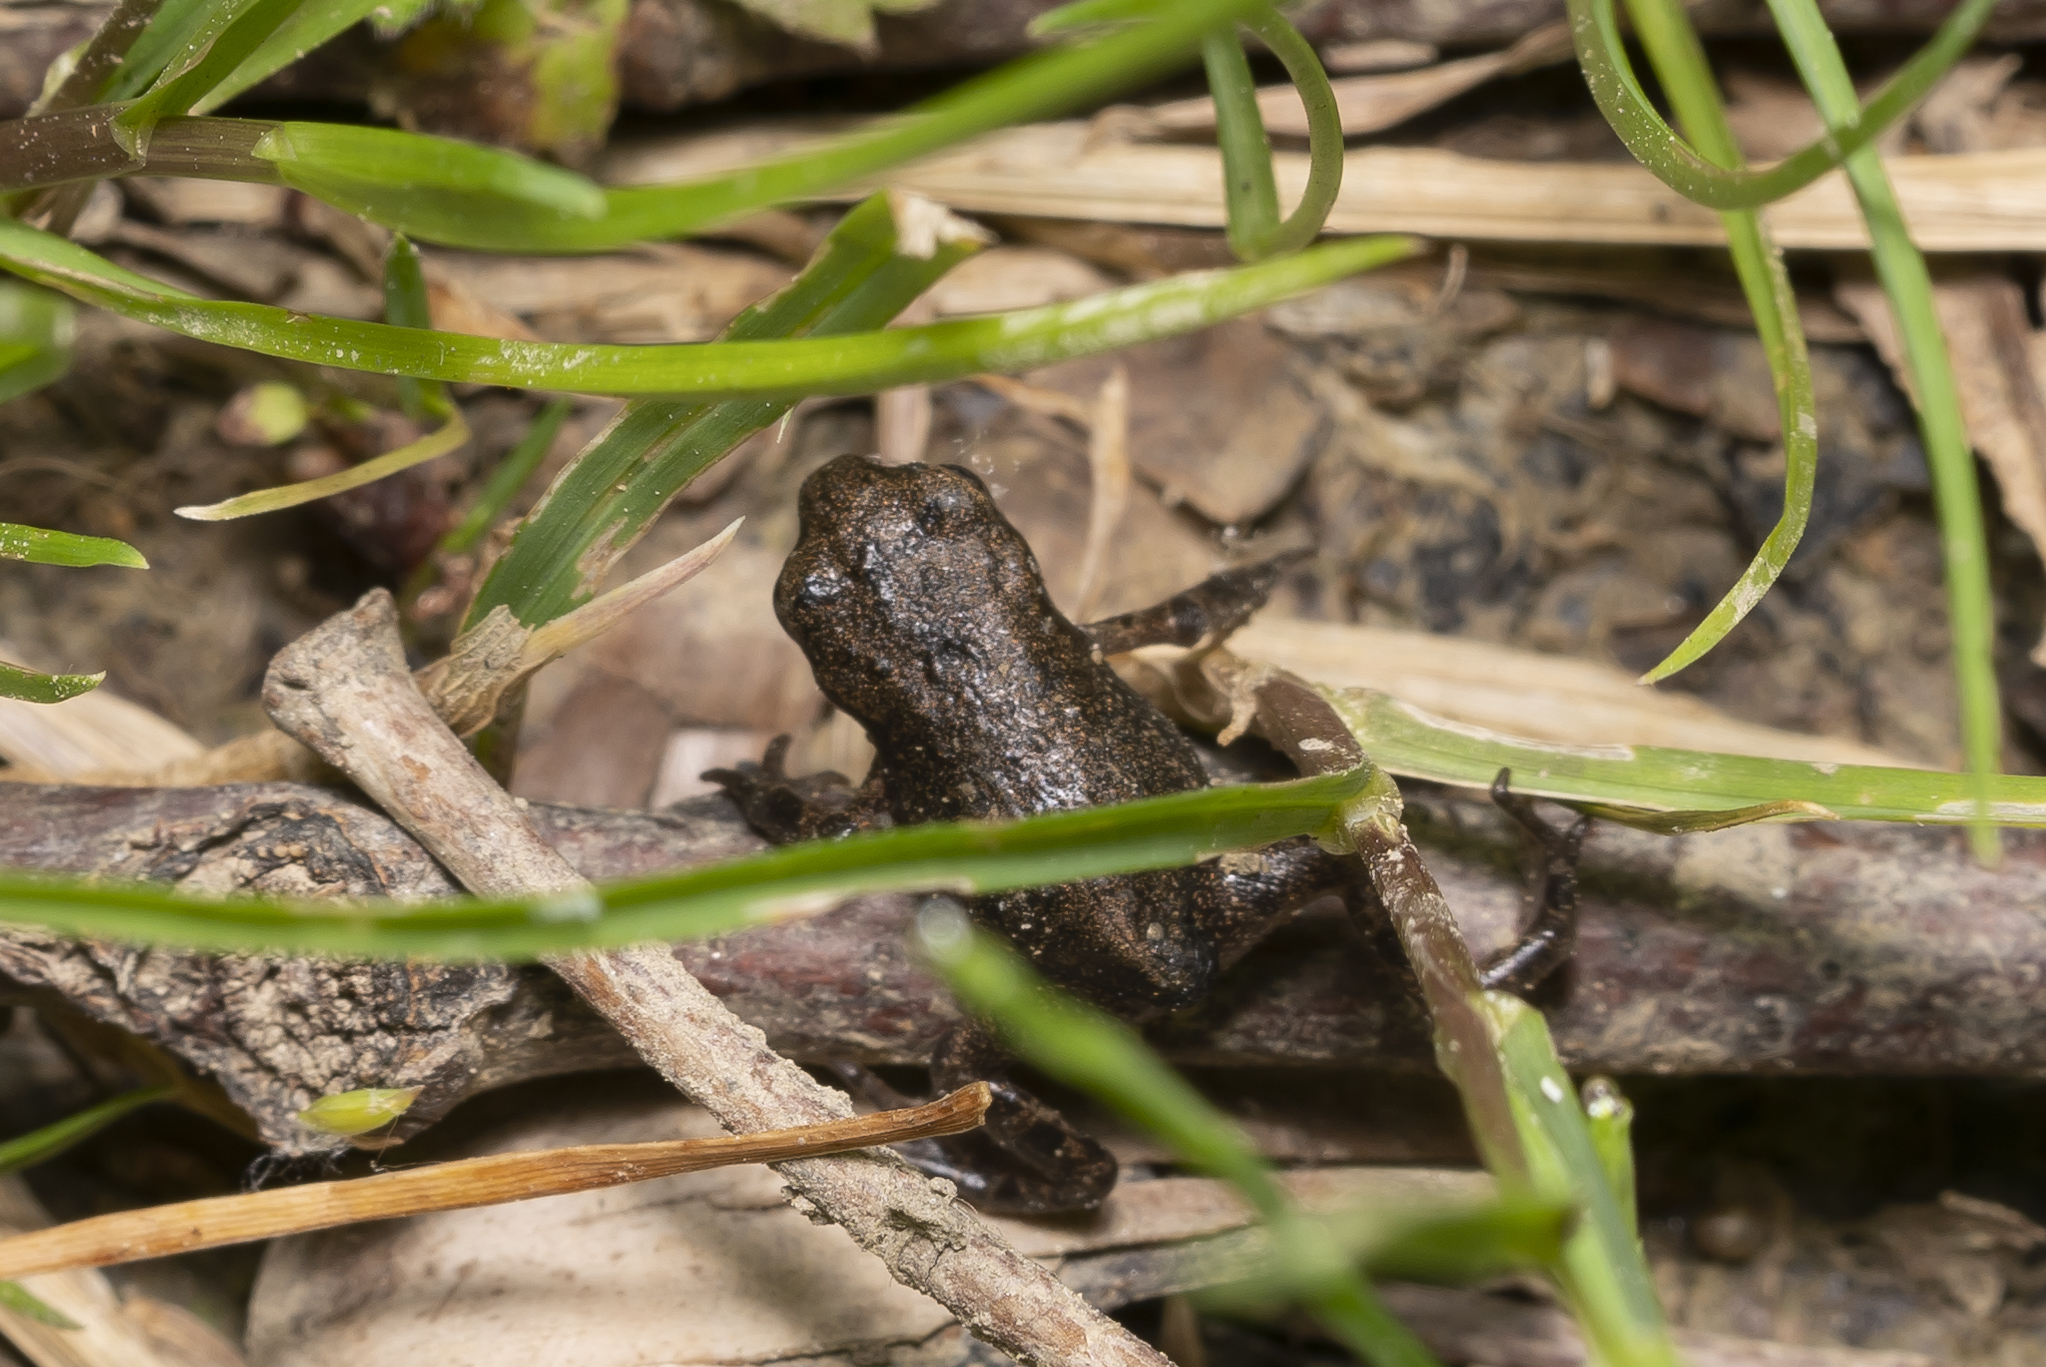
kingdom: Animalia
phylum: Chordata
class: Amphibia
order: Anura
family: Bufonidae
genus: Bufo
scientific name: Bufo bufo
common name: Common toad
